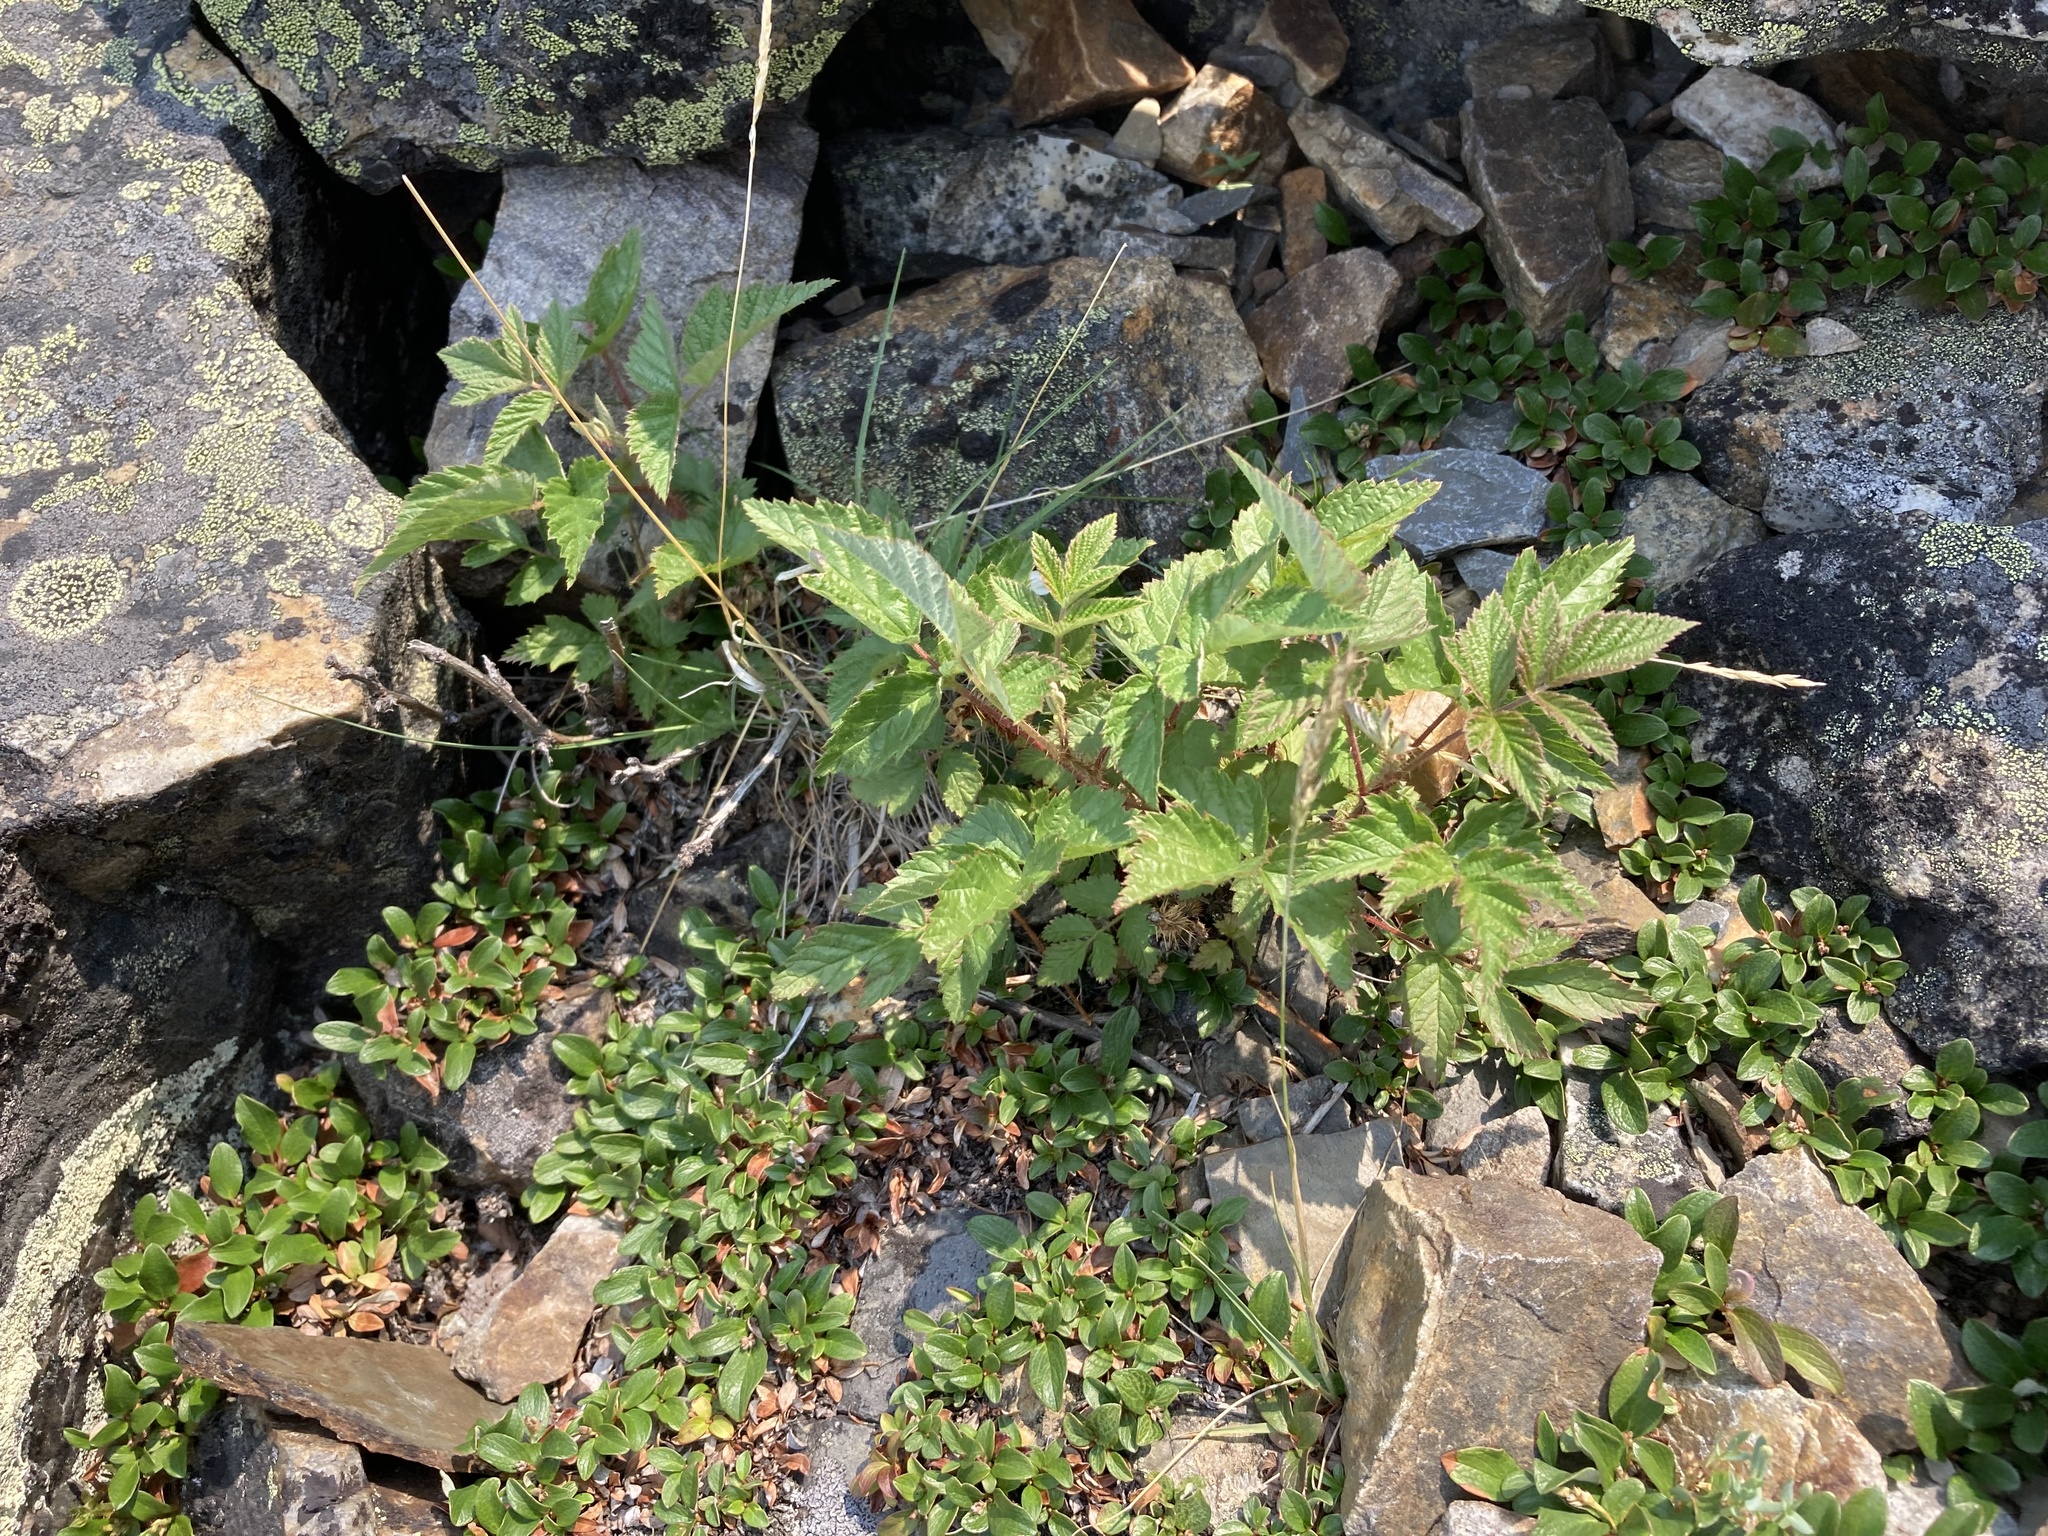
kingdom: Plantae
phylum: Tracheophyta
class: Magnoliopsida
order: Rosales
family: Rosaceae
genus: Rubus
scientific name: Rubus idaeus
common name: Raspberry
